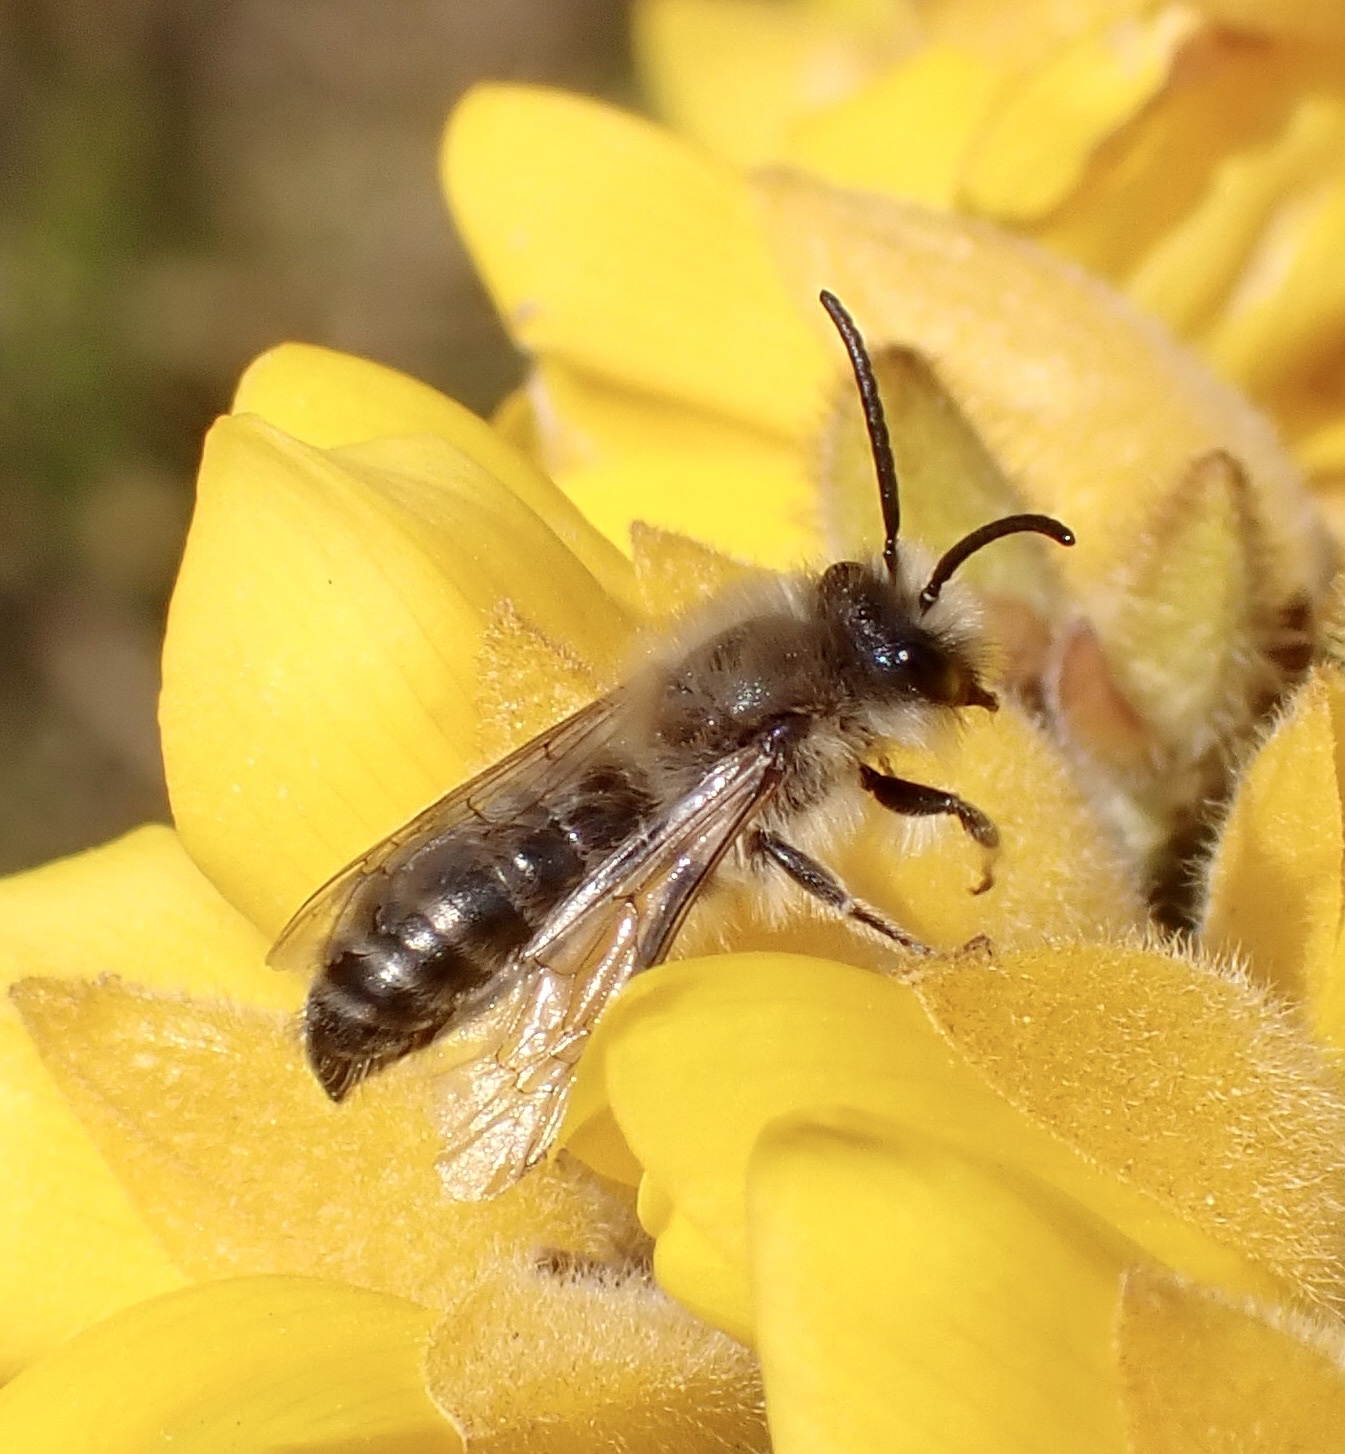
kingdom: Animalia
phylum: Arthropoda
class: Insecta
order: Hymenoptera
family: Colletidae
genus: Colletes
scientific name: Colletes cunicularius
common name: Early colletes
